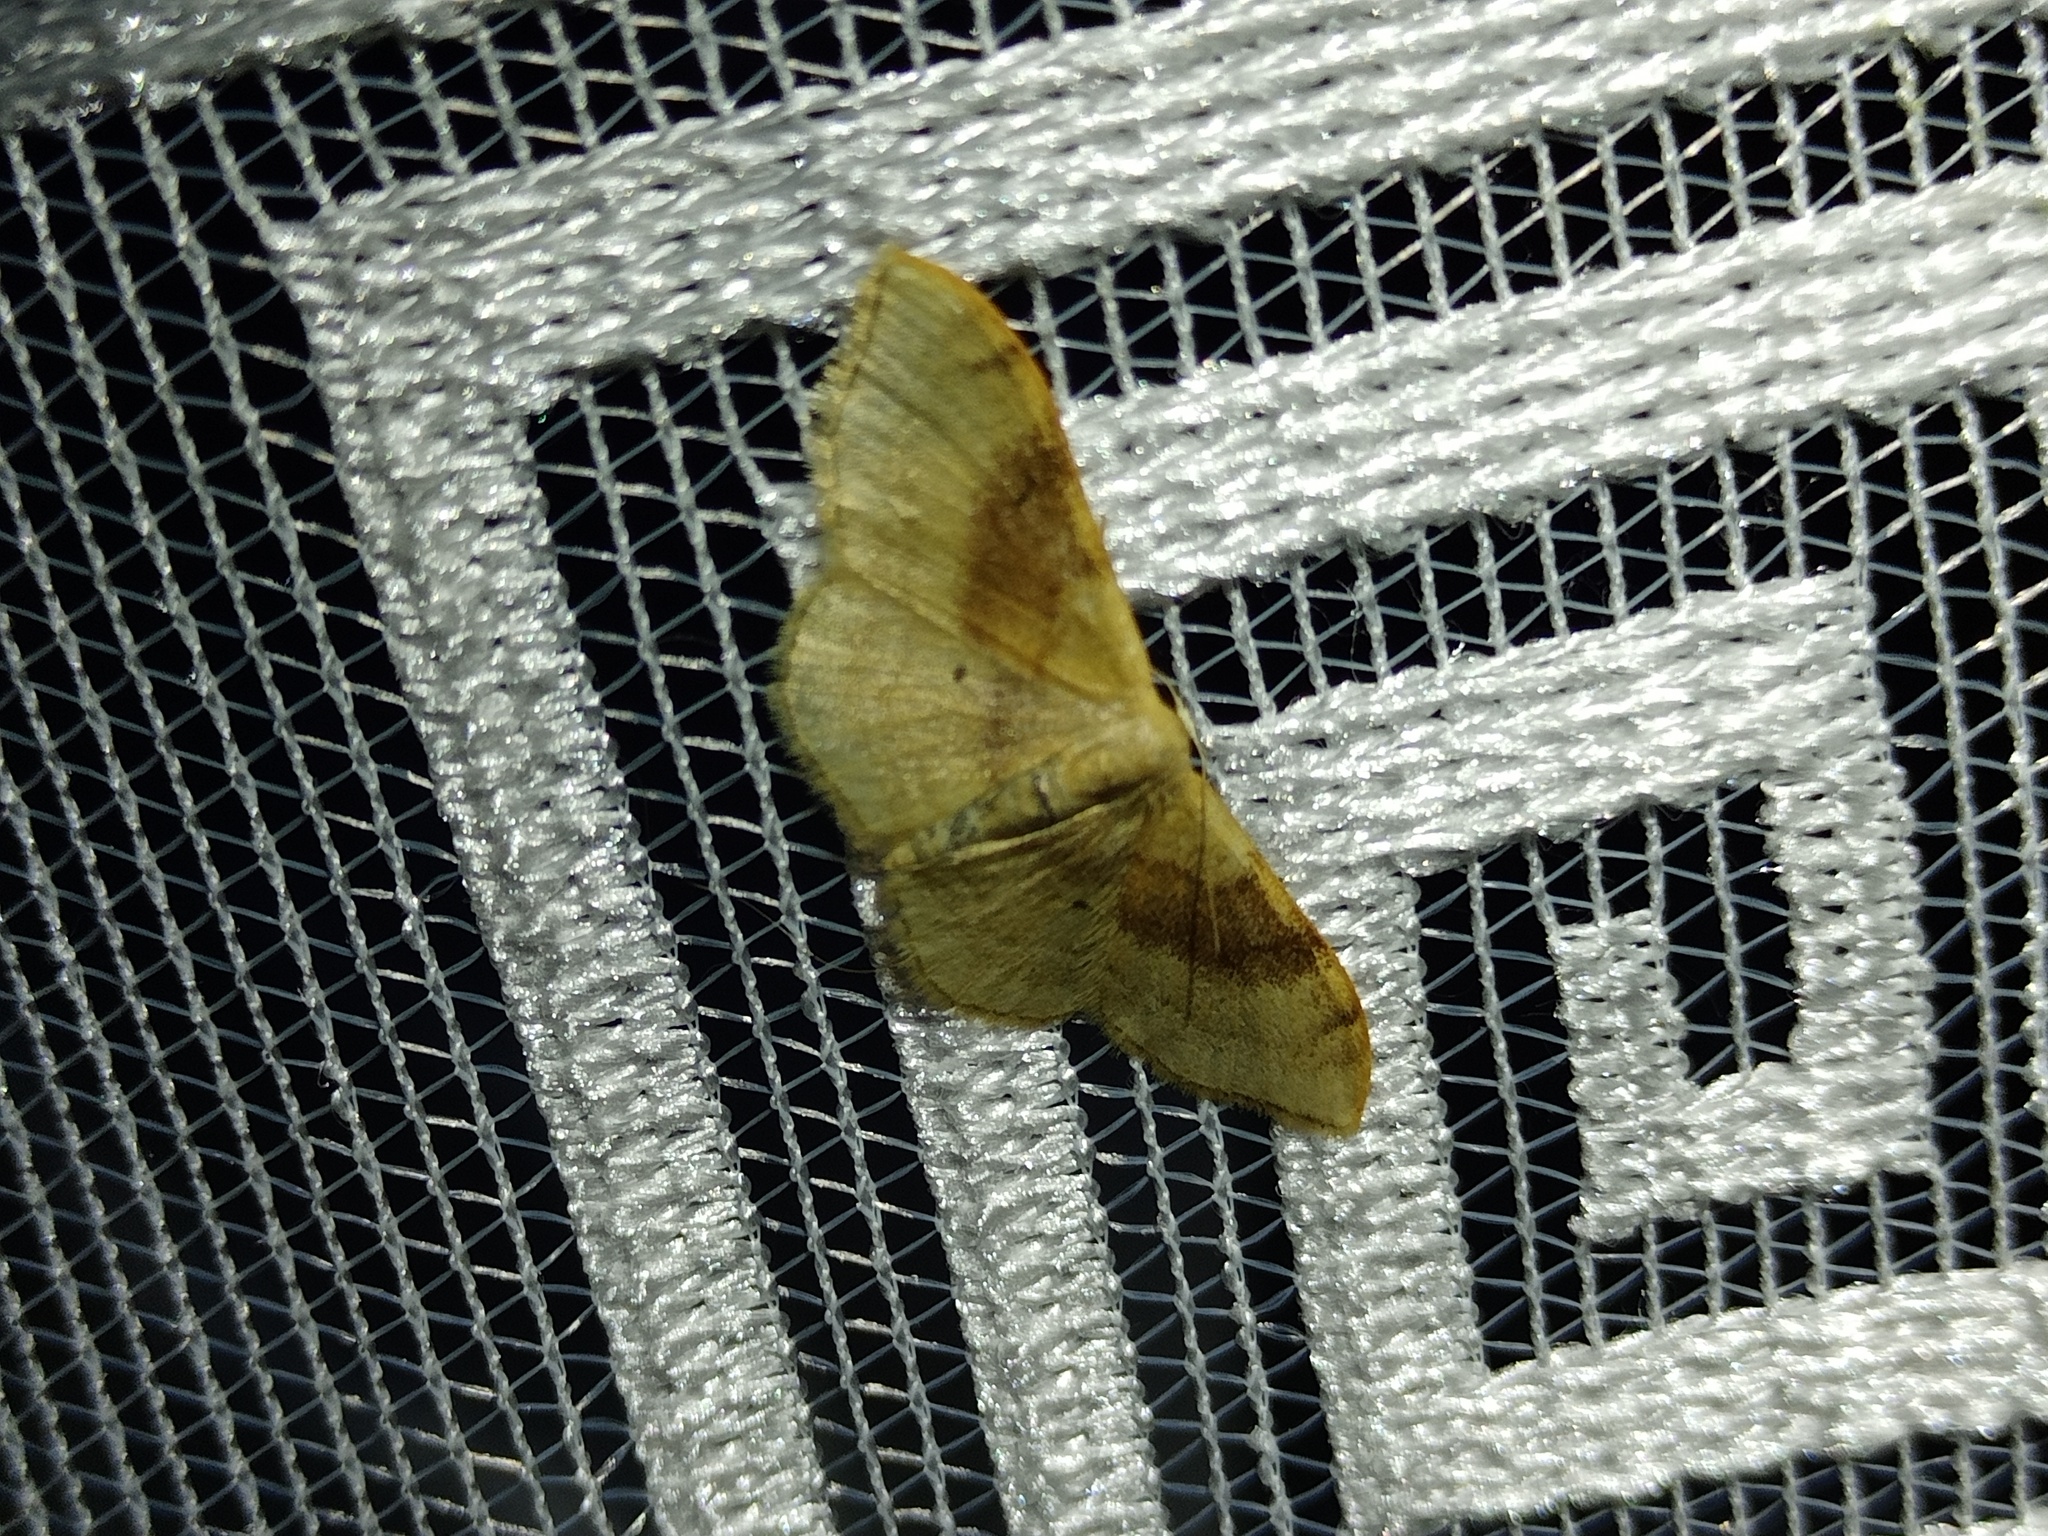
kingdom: Animalia
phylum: Arthropoda
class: Insecta
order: Lepidoptera
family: Geometridae
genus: Idaea
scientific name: Idaea degeneraria
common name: Portland ribbon wave
